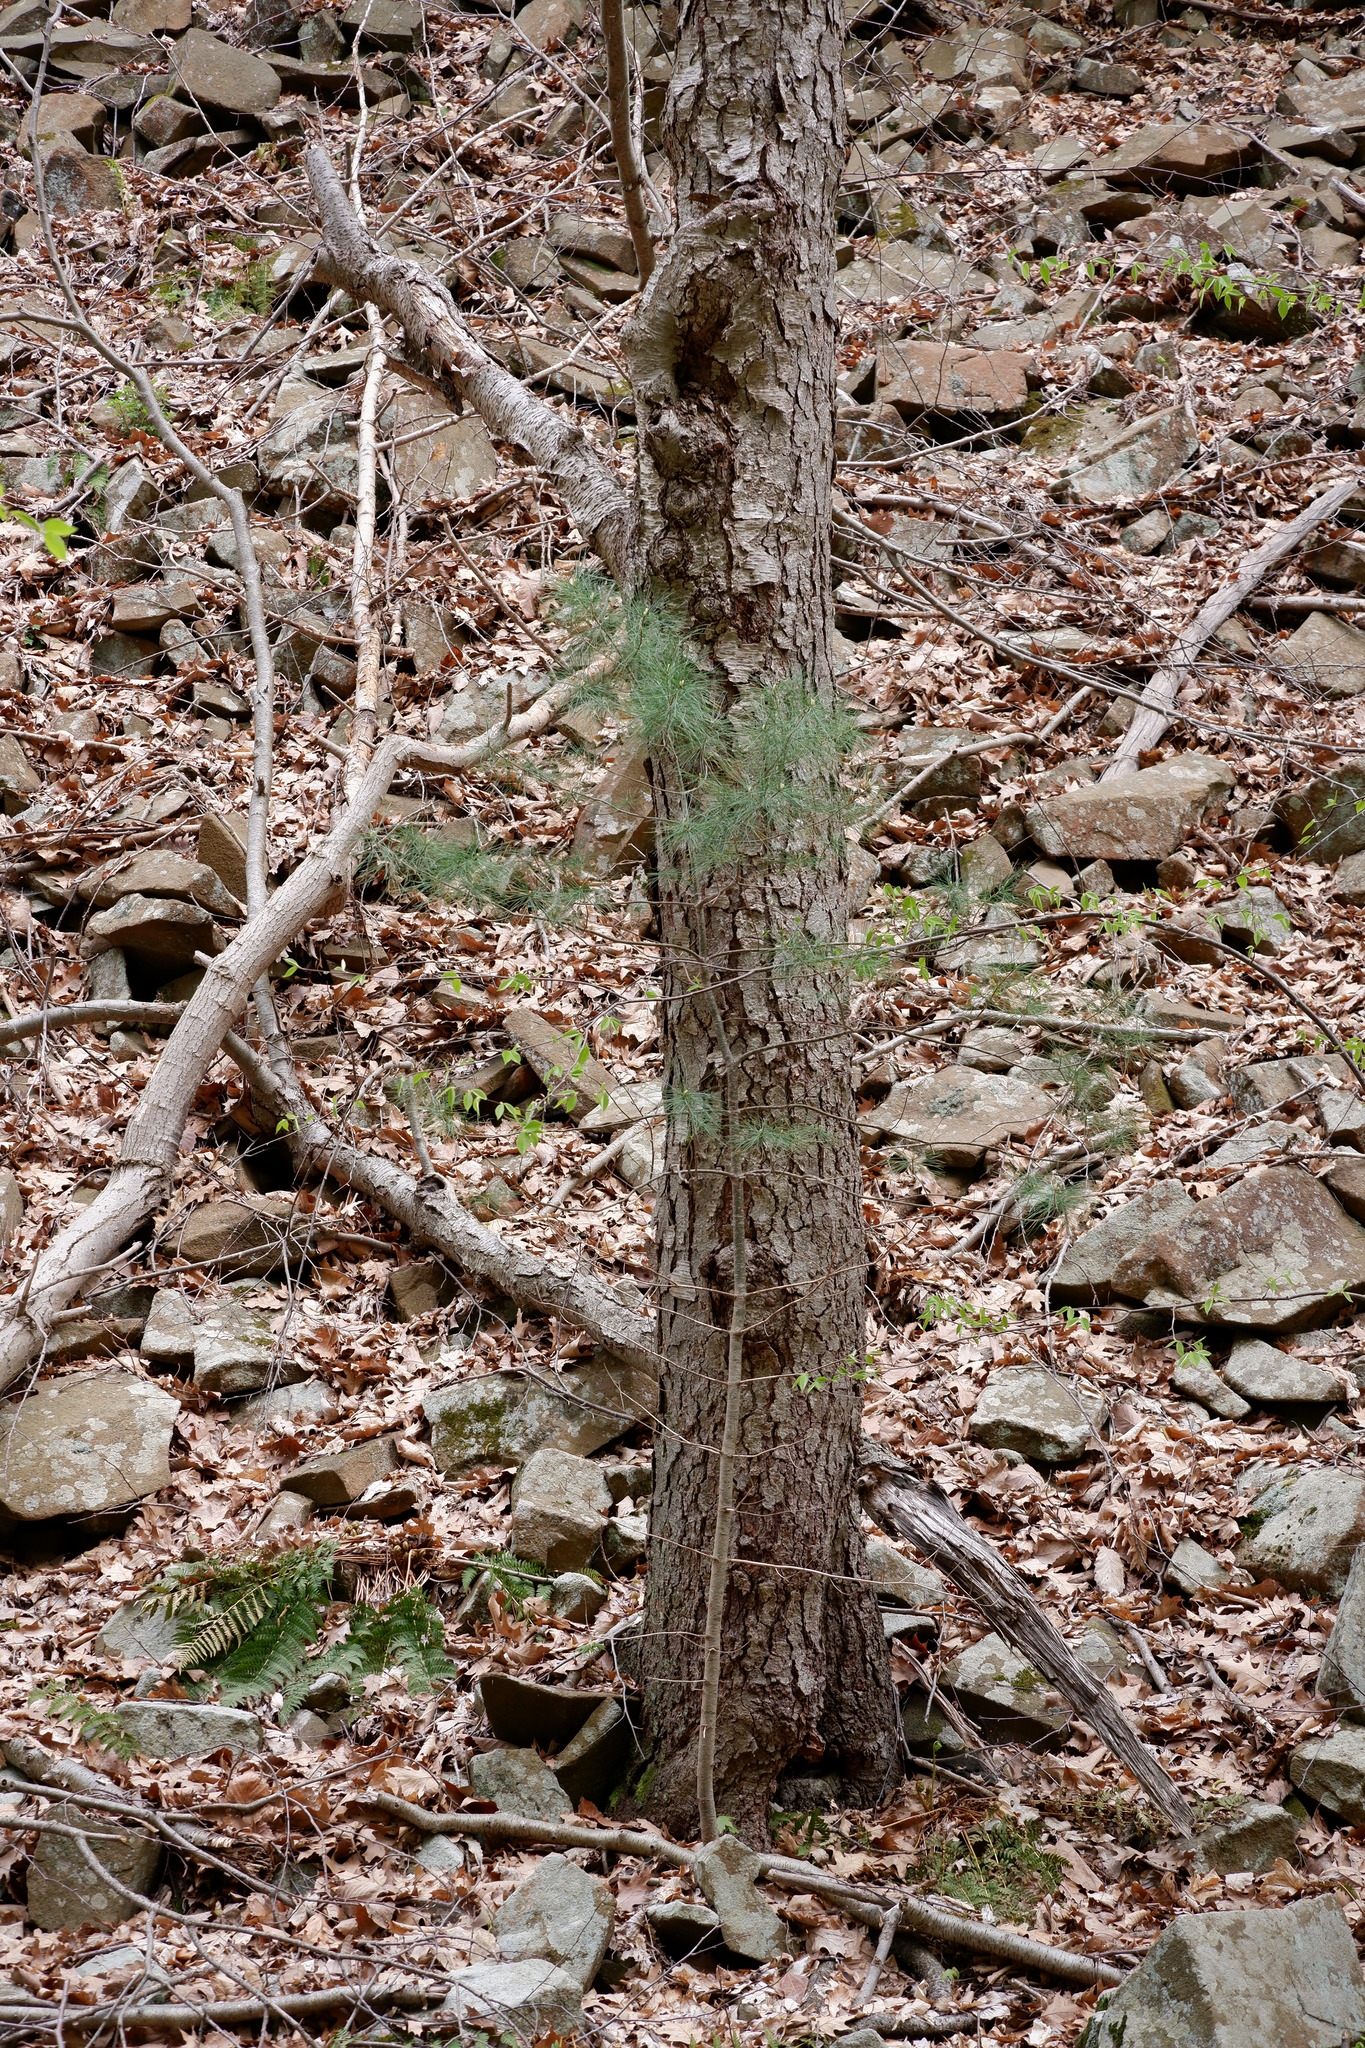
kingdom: Plantae
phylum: Tracheophyta
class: Pinopsida
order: Pinales
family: Pinaceae
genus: Pinus
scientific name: Pinus strobus
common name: Weymouth pine
